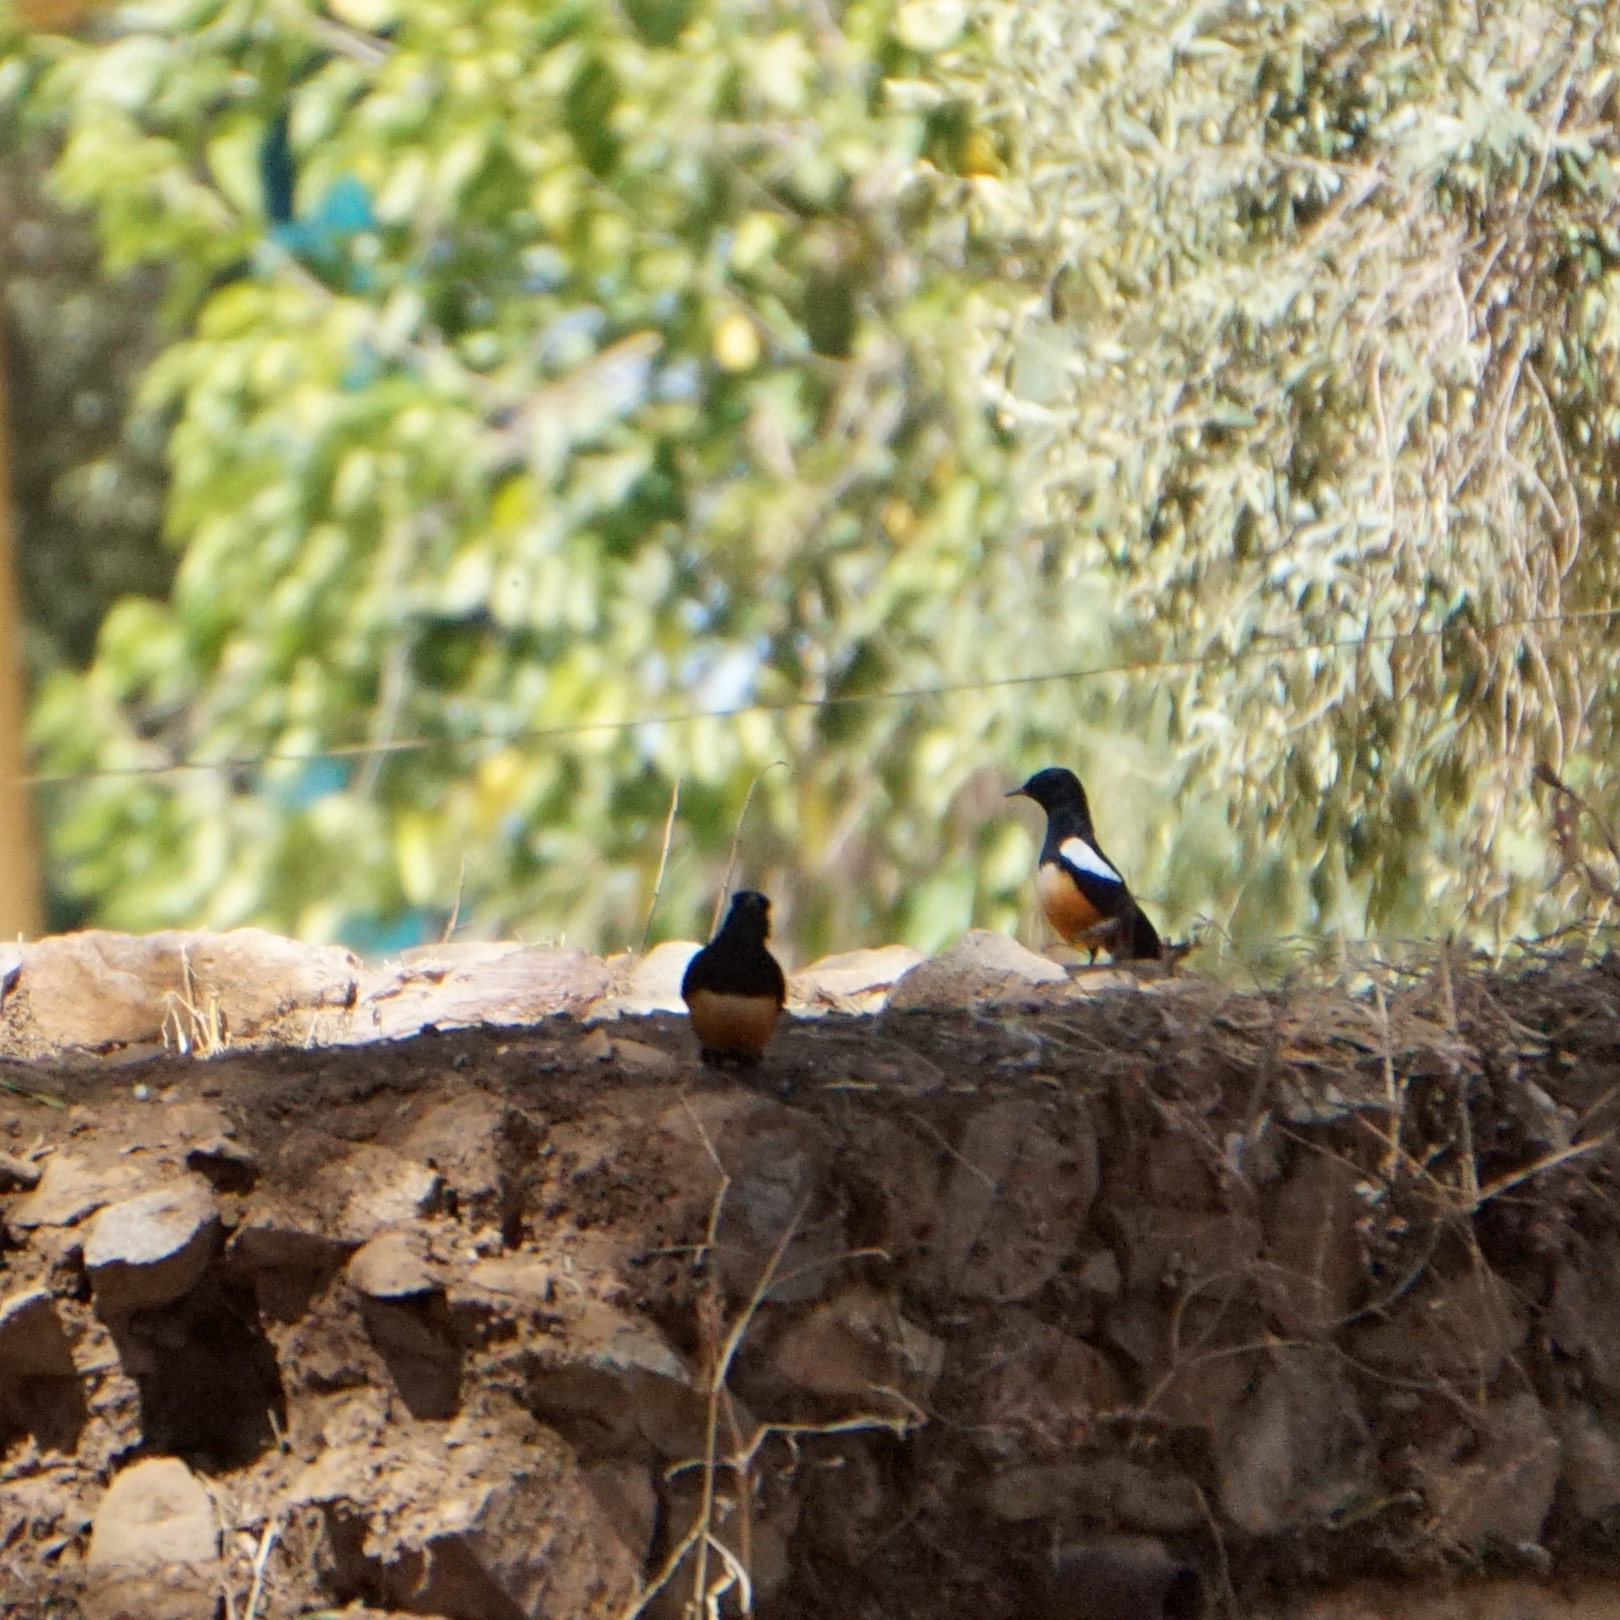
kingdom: Animalia
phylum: Chordata
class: Aves
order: Passeriformes
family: Muscicapidae
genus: Thamnolaea
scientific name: Thamnolaea cinnamomeiventris
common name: Mocking cliff chat
